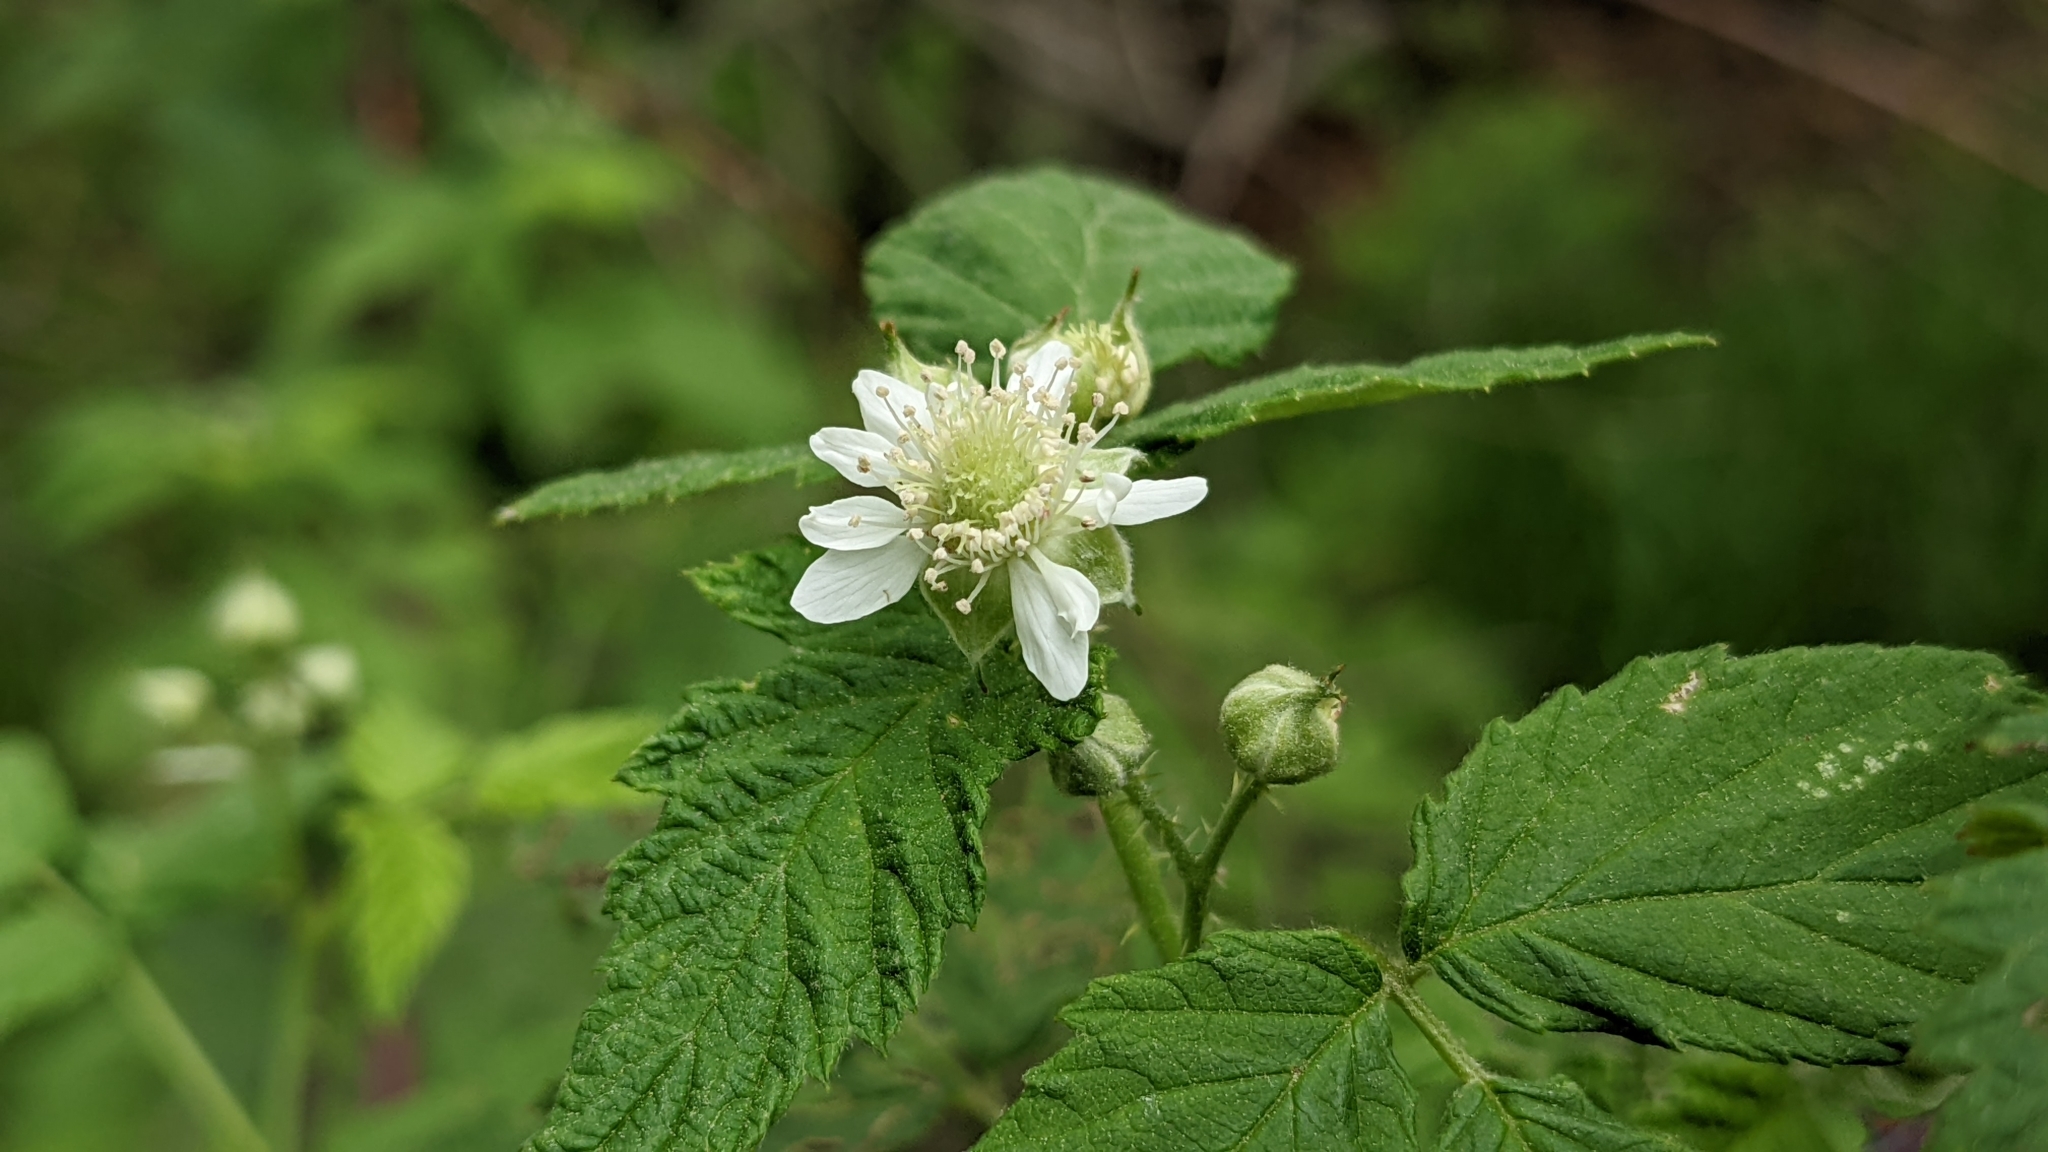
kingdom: Plantae
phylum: Tracheophyta
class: Magnoliopsida
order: Rosales
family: Rosaceae
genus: Rubus
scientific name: Rubus occidentalis
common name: Black raspberry
